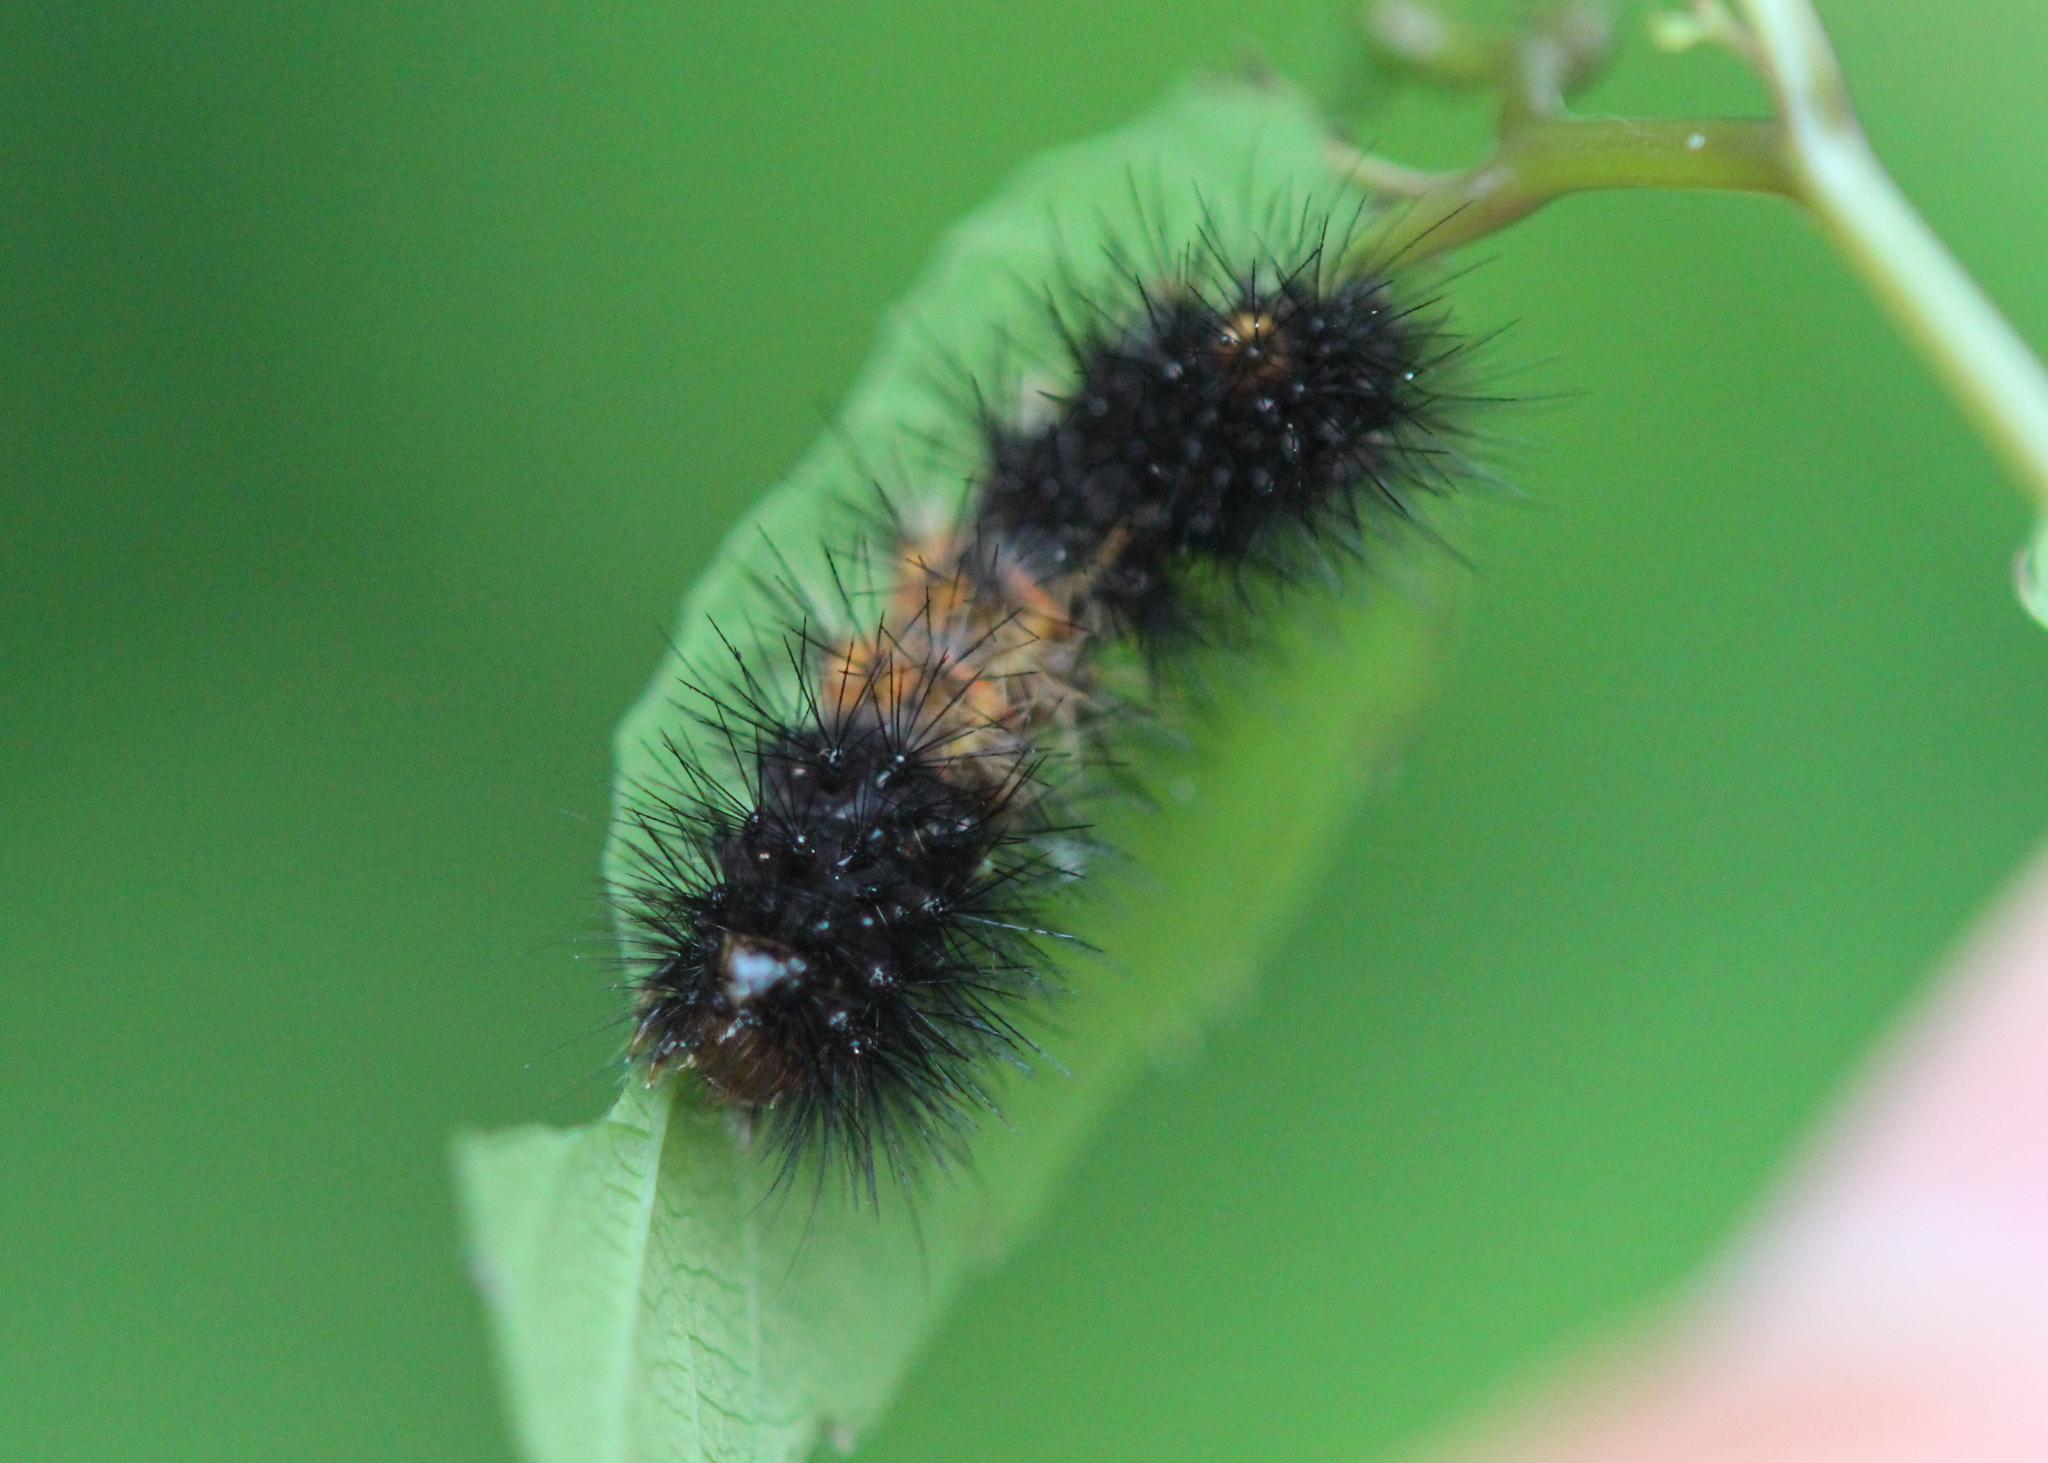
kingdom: Animalia
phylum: Arthropoda
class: Insecta
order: Lepidoptera
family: Erebidae
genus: Hypercompe
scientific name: Hypercompe scribonia
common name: Giant leopard moth
